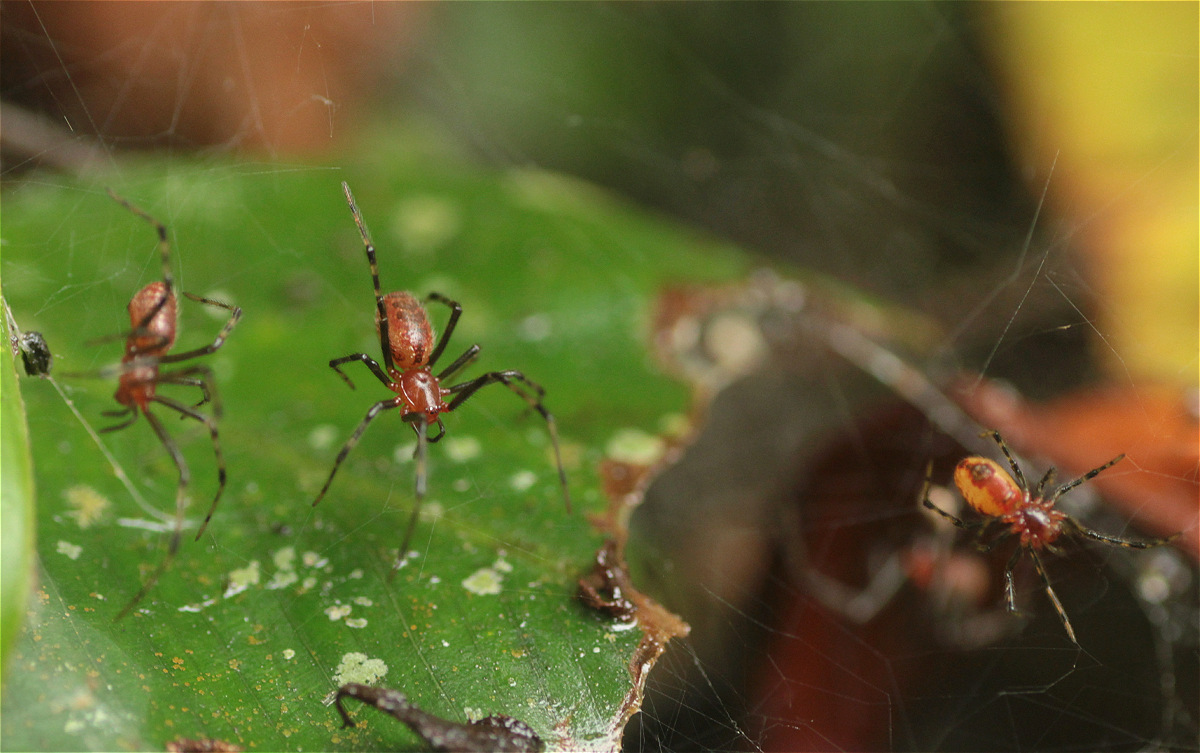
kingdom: Animalia
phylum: Arthropoda
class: Arachnida
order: Araneae
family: Theridiidae
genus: Anelosimus
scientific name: Anelosimus eximius
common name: Cobweb spiders
